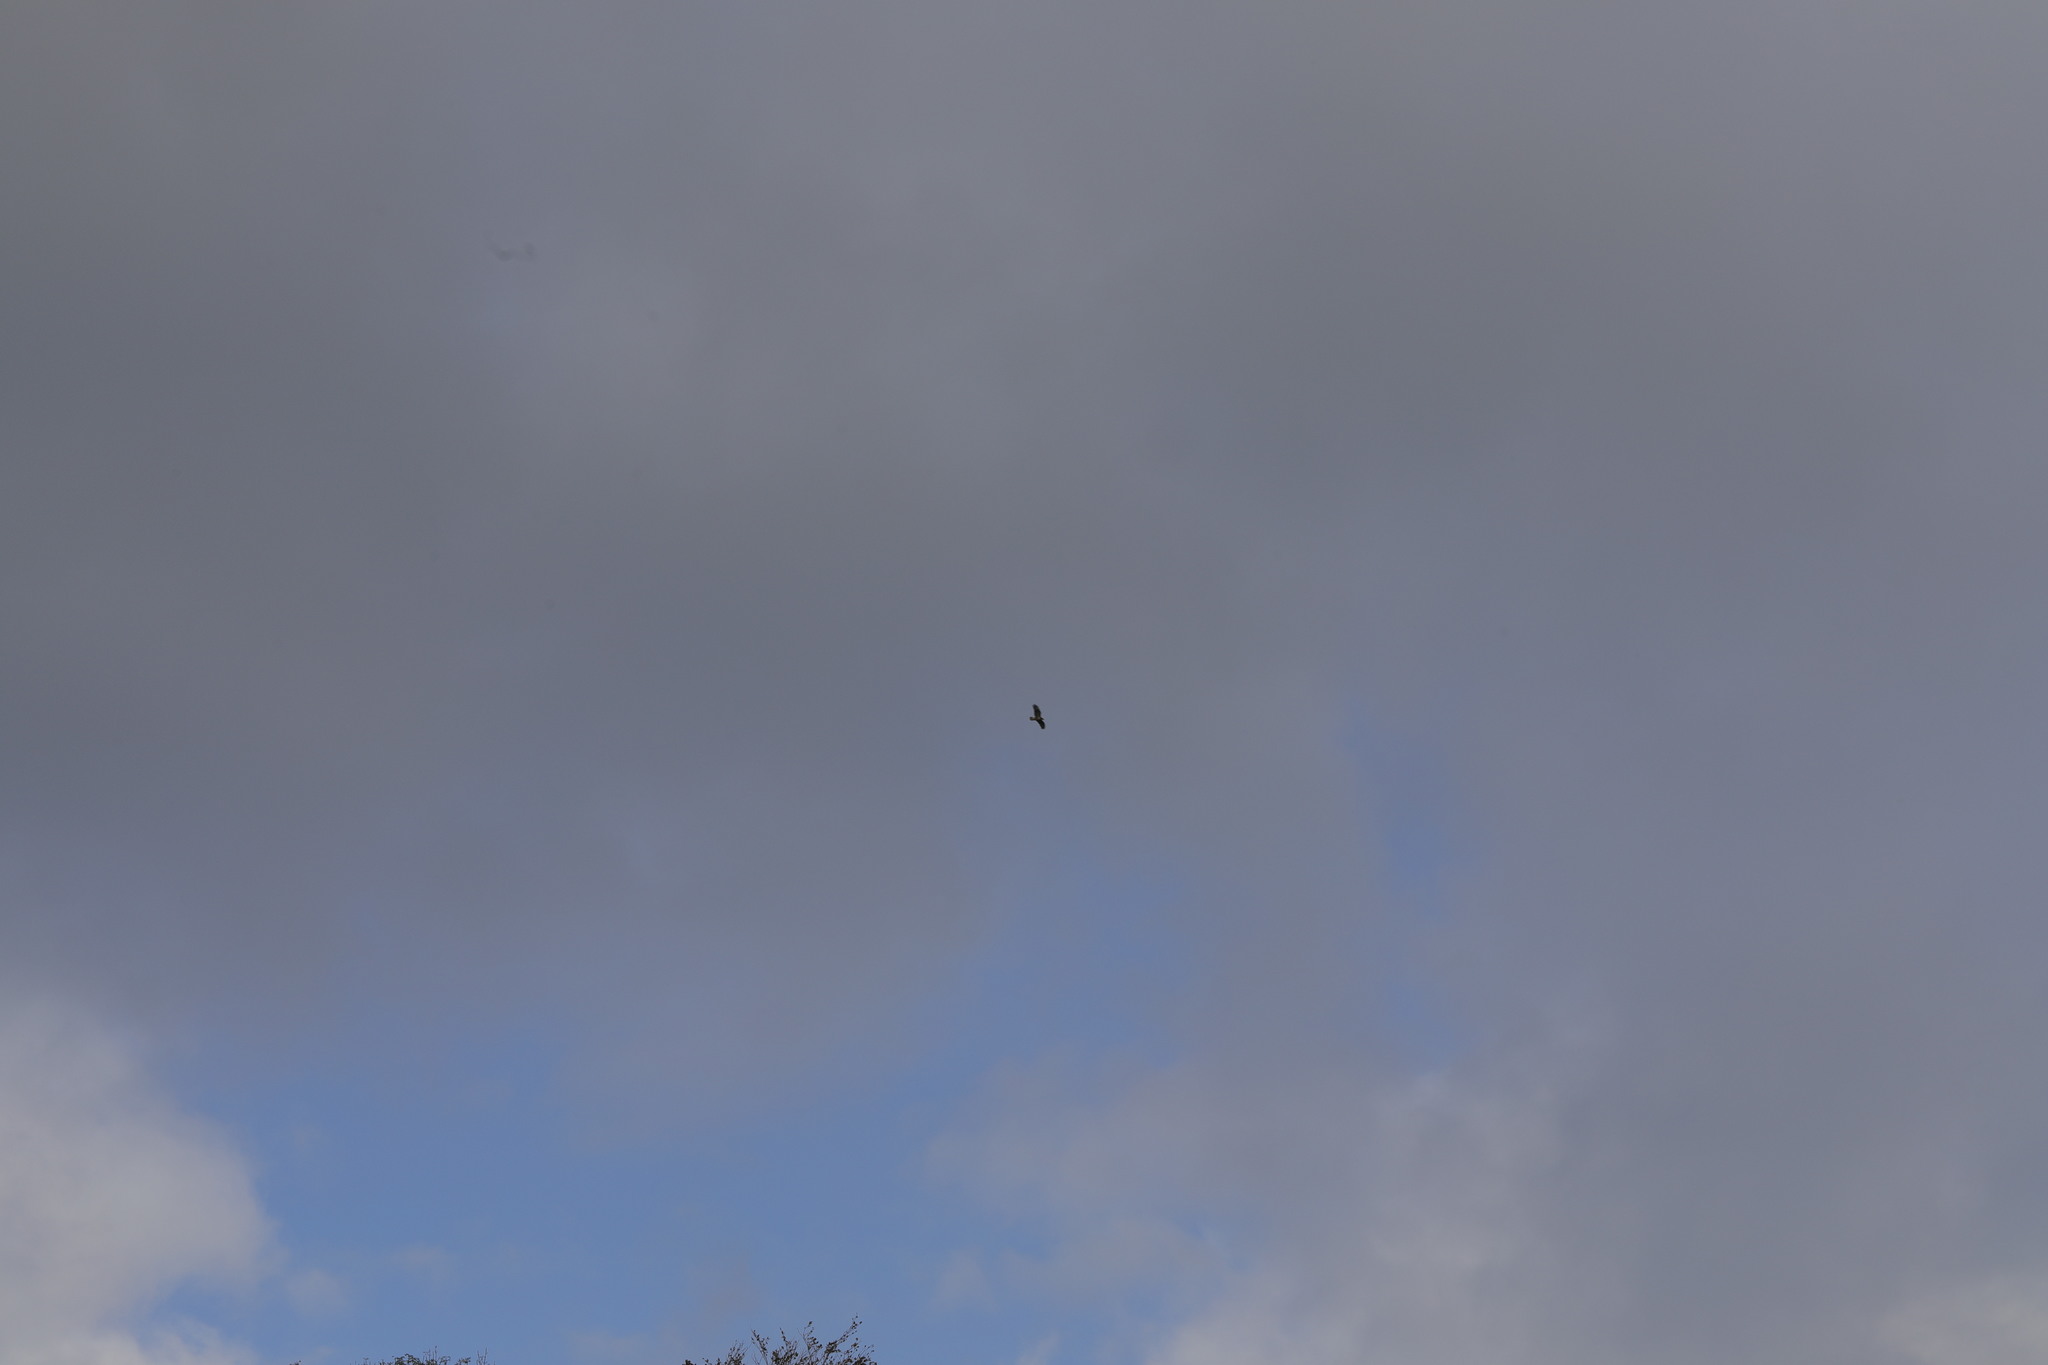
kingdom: Animalia
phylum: Chordata
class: Aves
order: Accipitriformes
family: Accipitridae
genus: Buteo
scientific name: Buteo buteo
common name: Common buzzard
